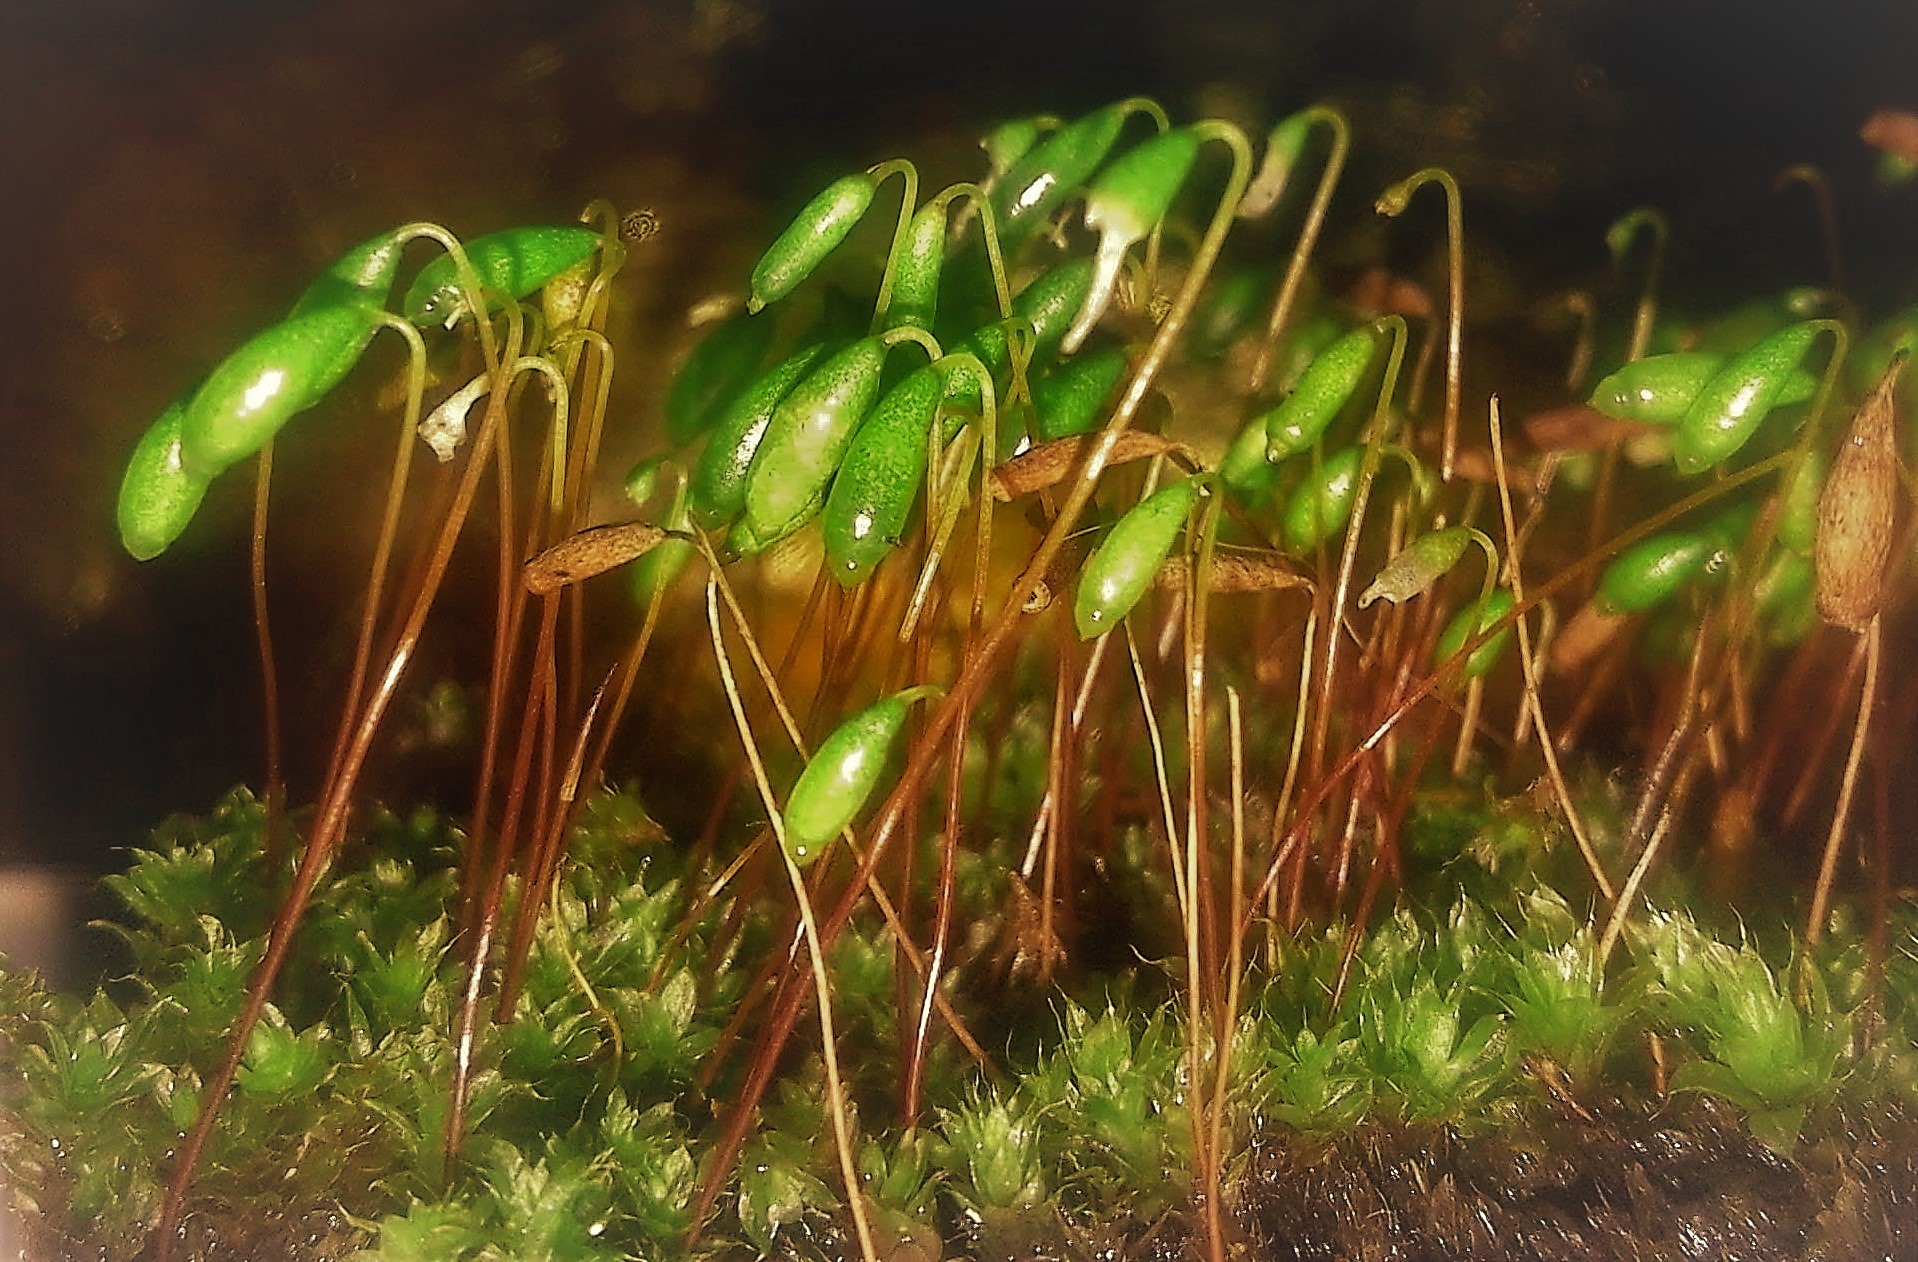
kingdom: Plantae
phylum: Bryophyta
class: Bryopsida
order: Bryales
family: Bryaceae
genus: Rosulabryum
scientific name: Rosulabryum capillare
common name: Capillary thread-moss
